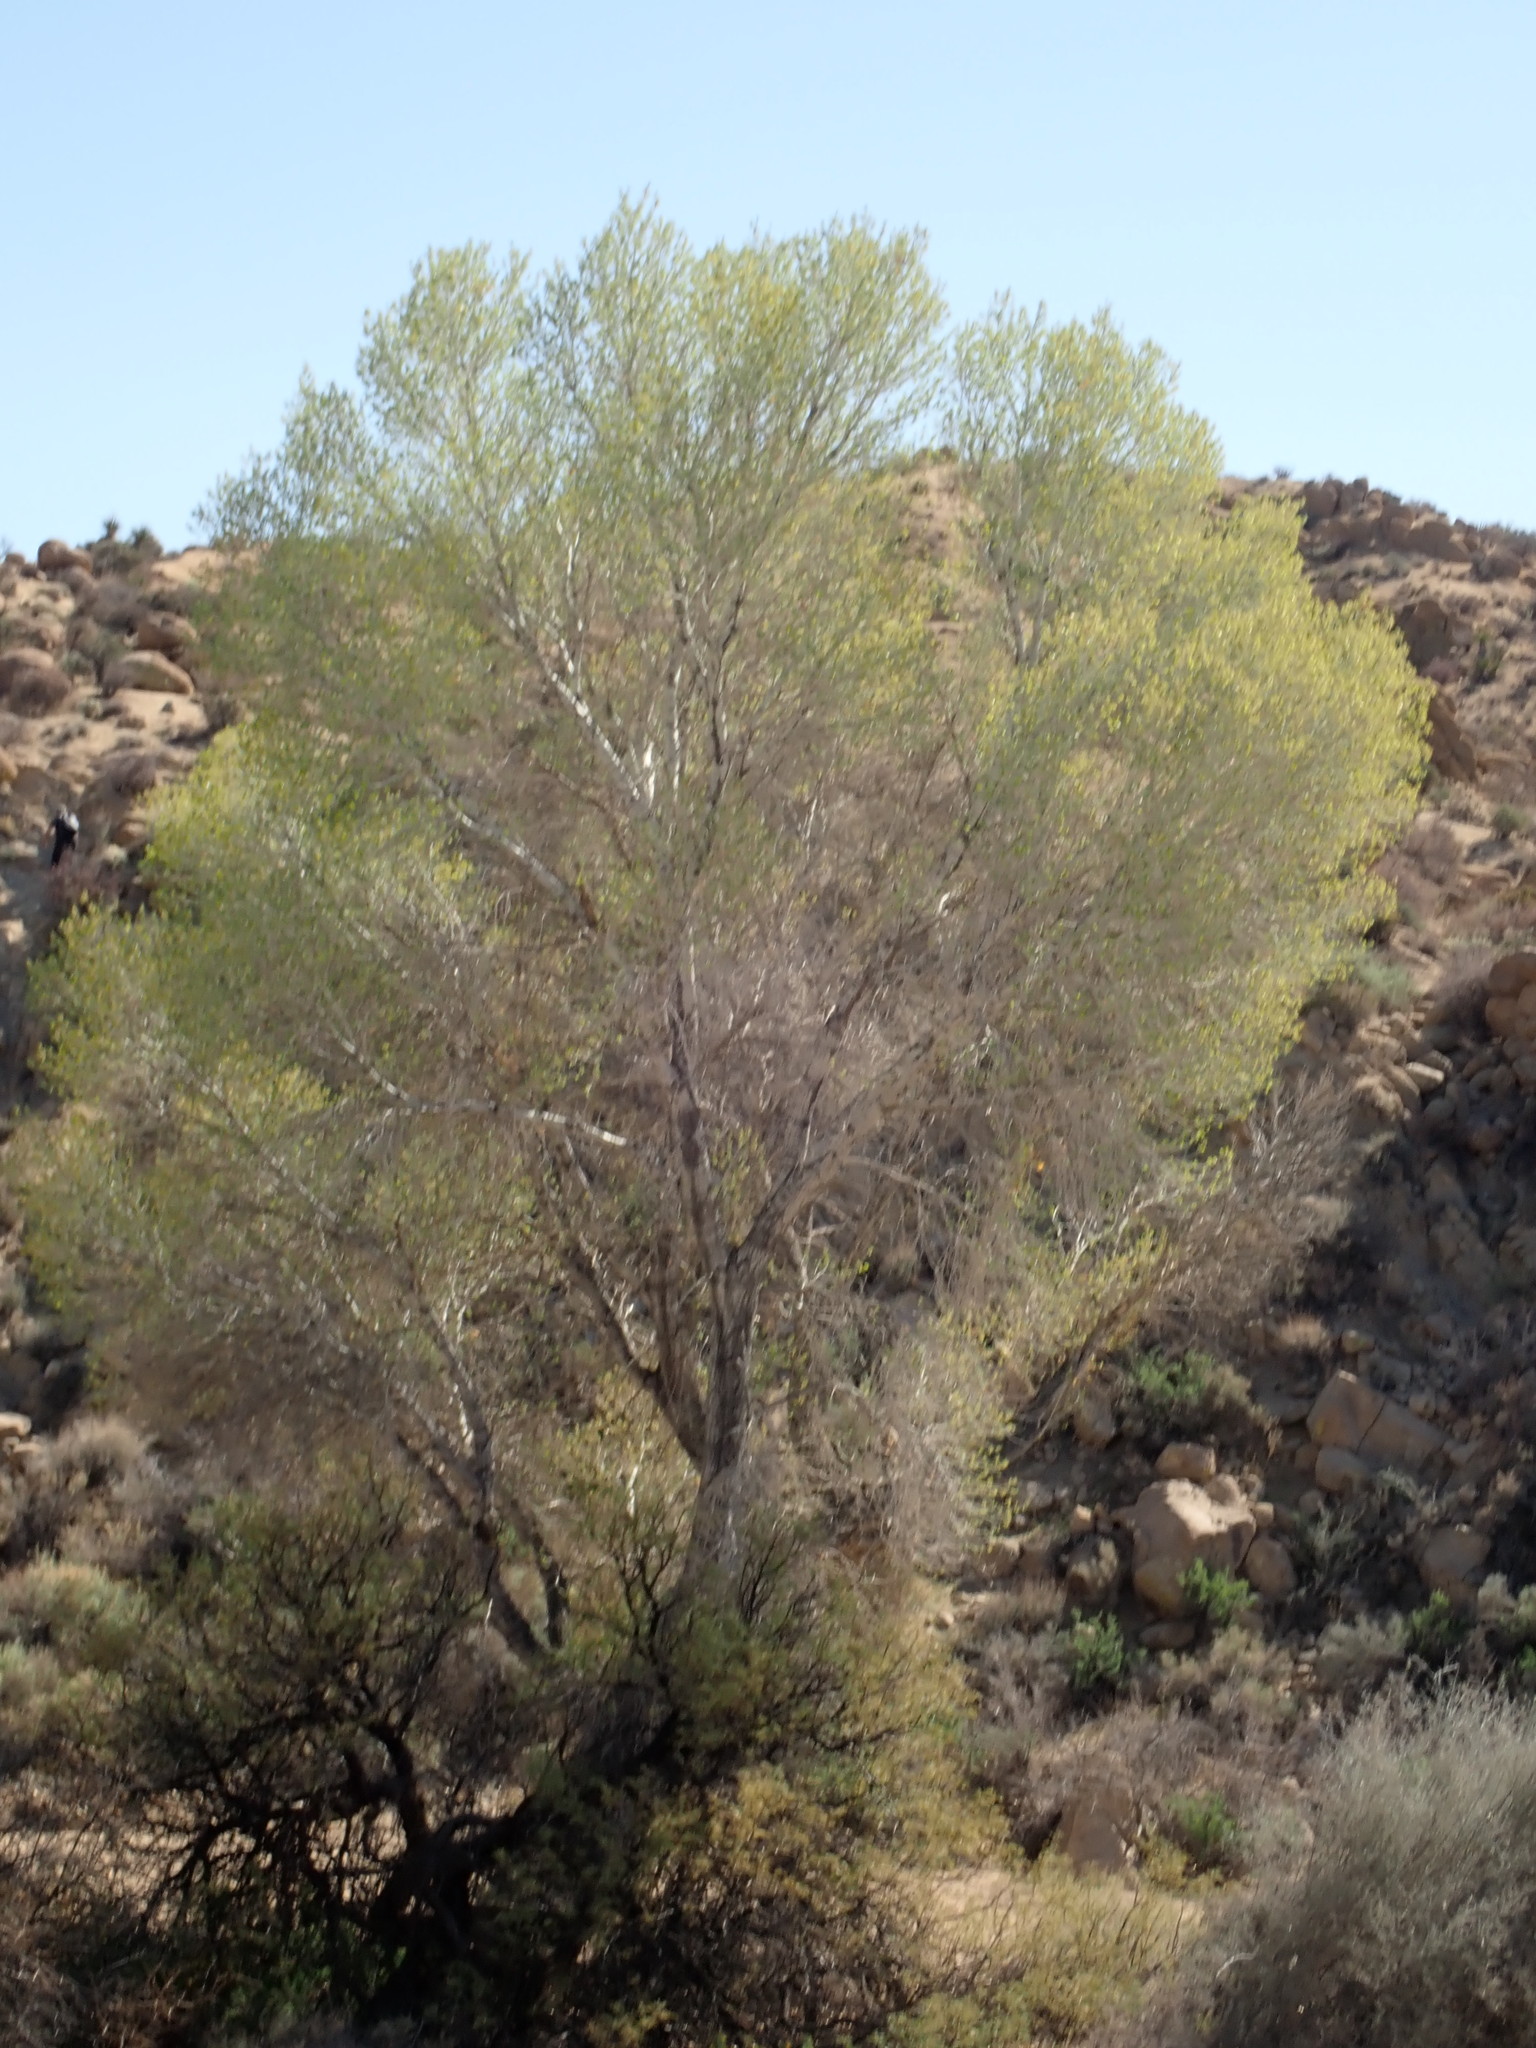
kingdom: Plantae
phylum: Tracheophyta
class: Magnoliopsida
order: Malpighiales
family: Salicaceae
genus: Populus
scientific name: Populus fremontii
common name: Fremont's cottonwood
